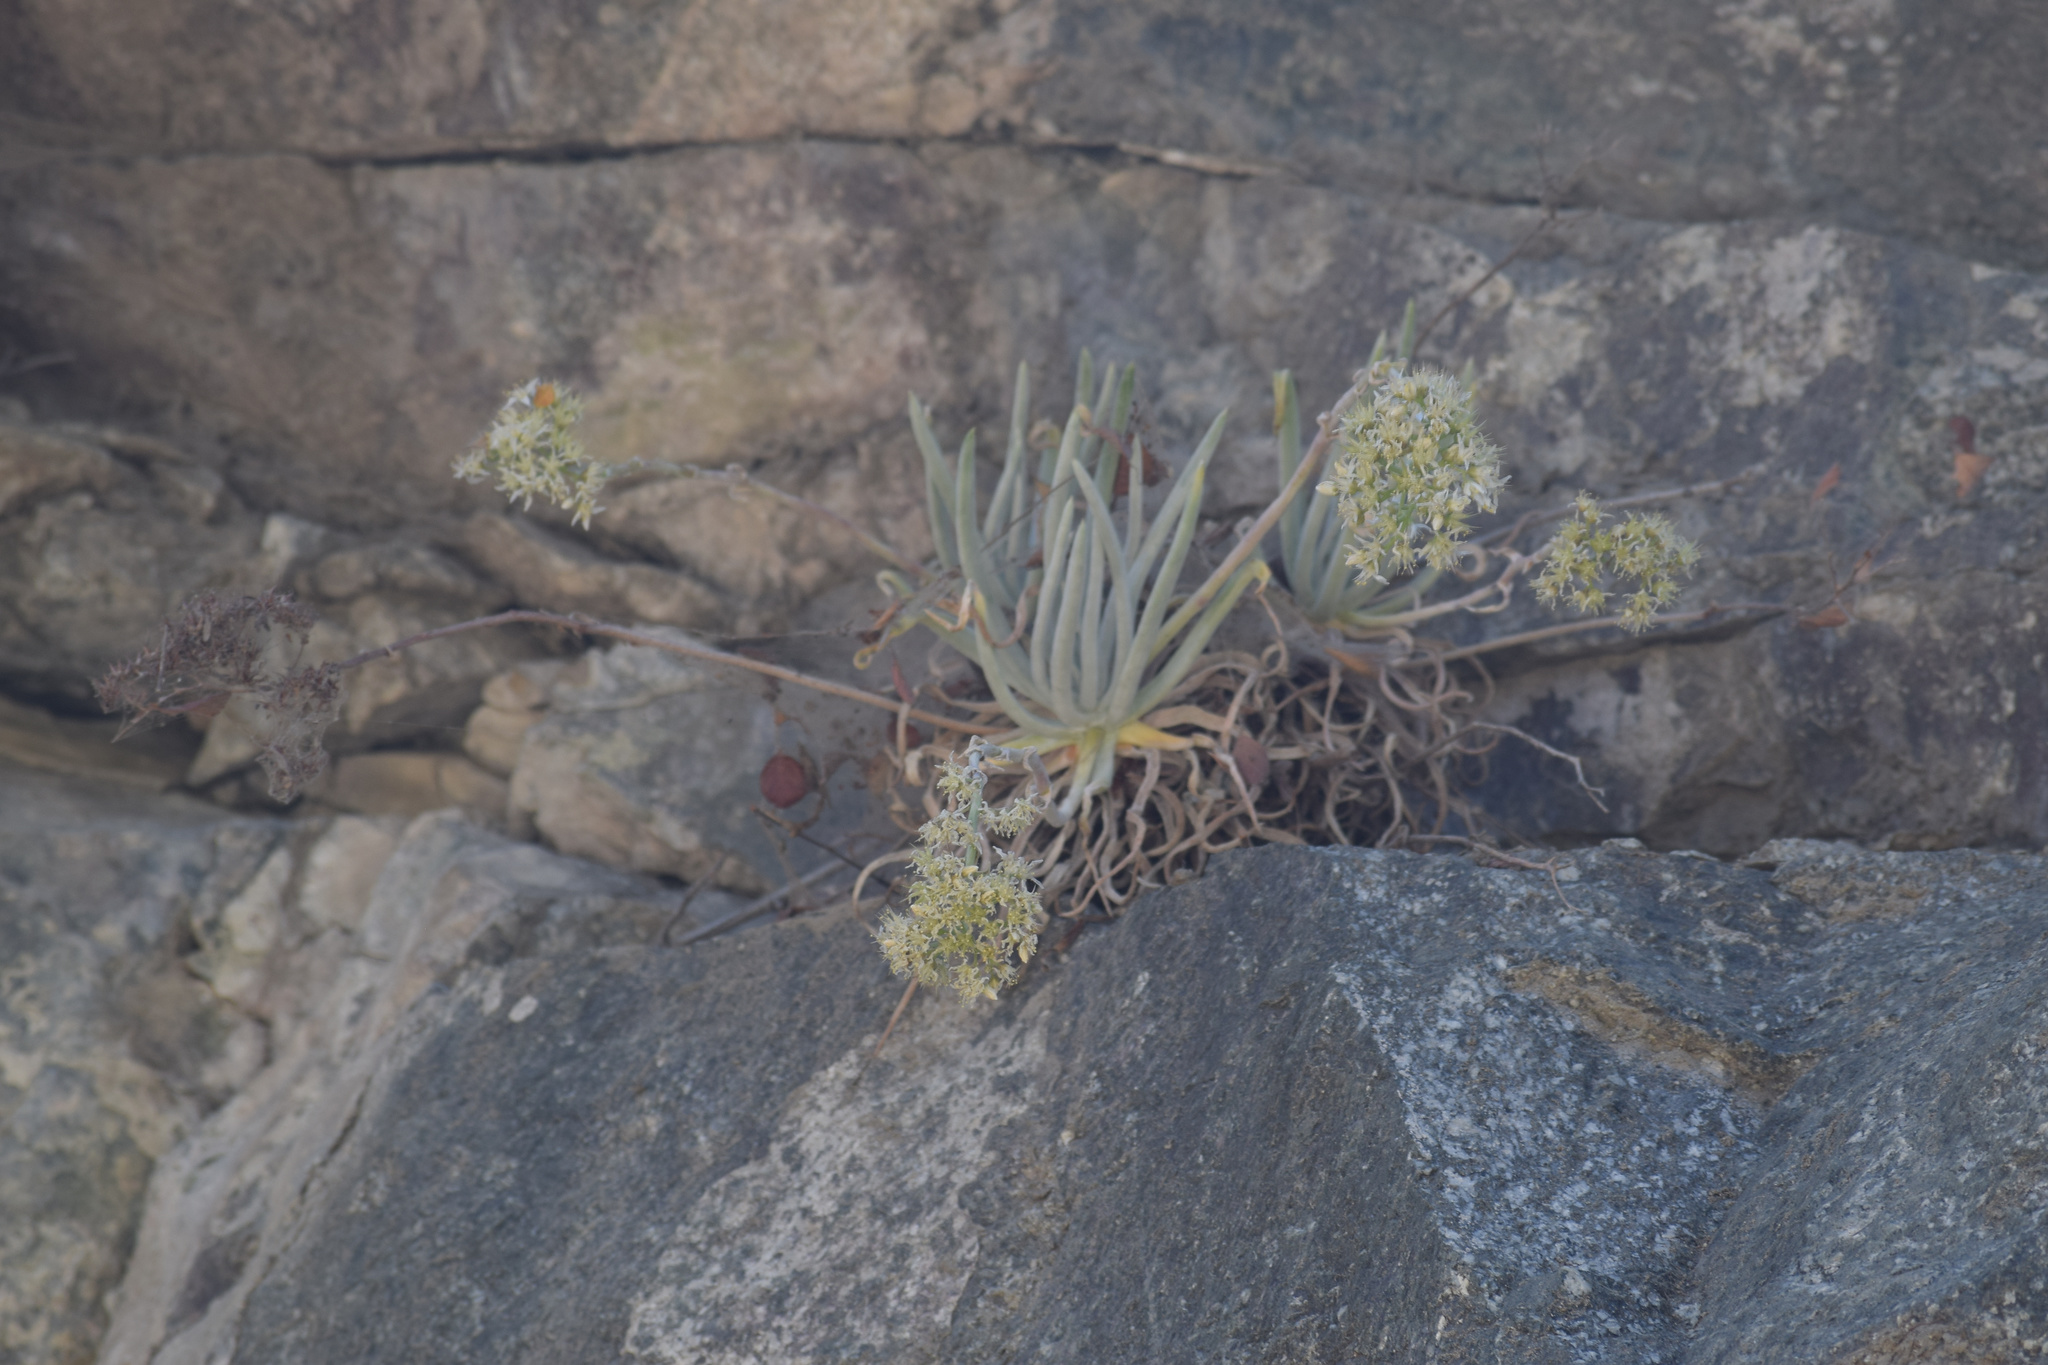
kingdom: Plantae
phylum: Tracheophyta
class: Magnoliopsida
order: Saxifragales
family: Crassulaceae
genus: Dudleya
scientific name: Dudleya densiflora
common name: San gabriel mountains dudleya
